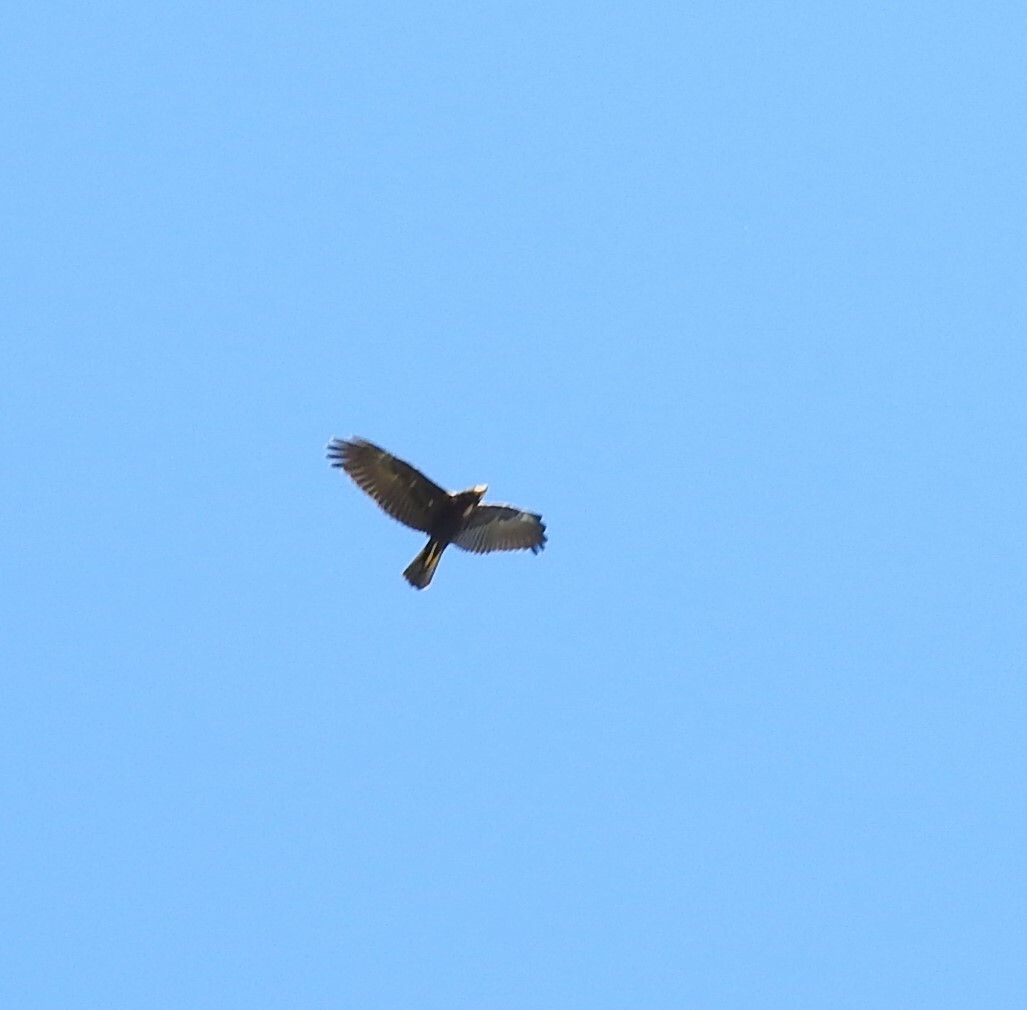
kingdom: Animalia
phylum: Chordata
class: Aves
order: Accipitriformes
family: Accipitridae
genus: Circus
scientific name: Circus aeruginosus
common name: Western marsh harrier
